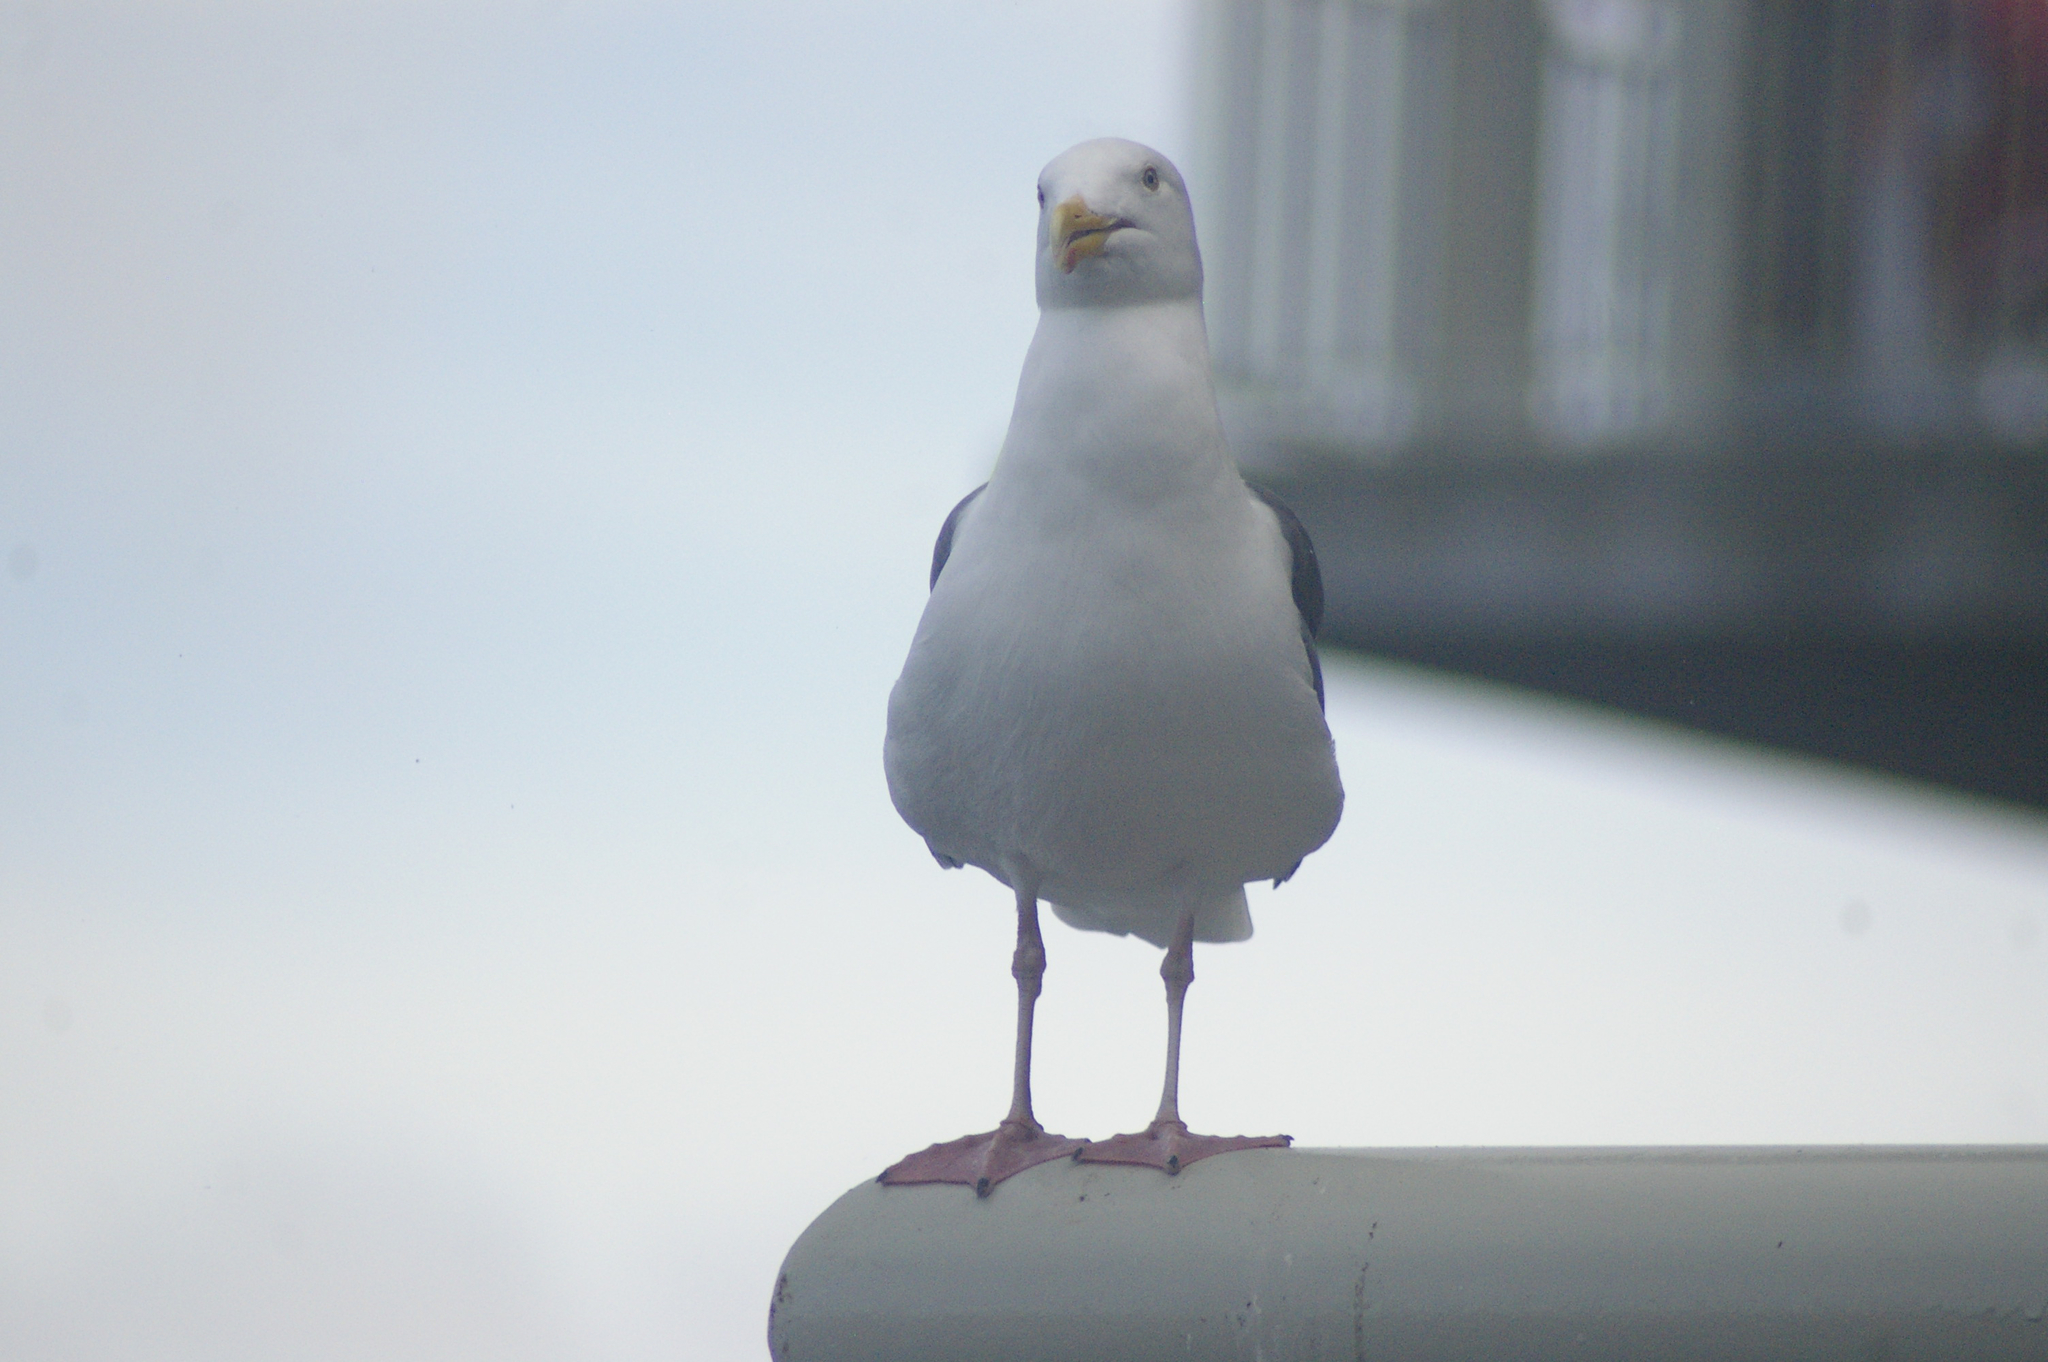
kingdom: Animalia
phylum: Chordata
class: Aves
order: Charadriiformes
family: Laridae
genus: Larus
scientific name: Larus occidentalis
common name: Western gull
